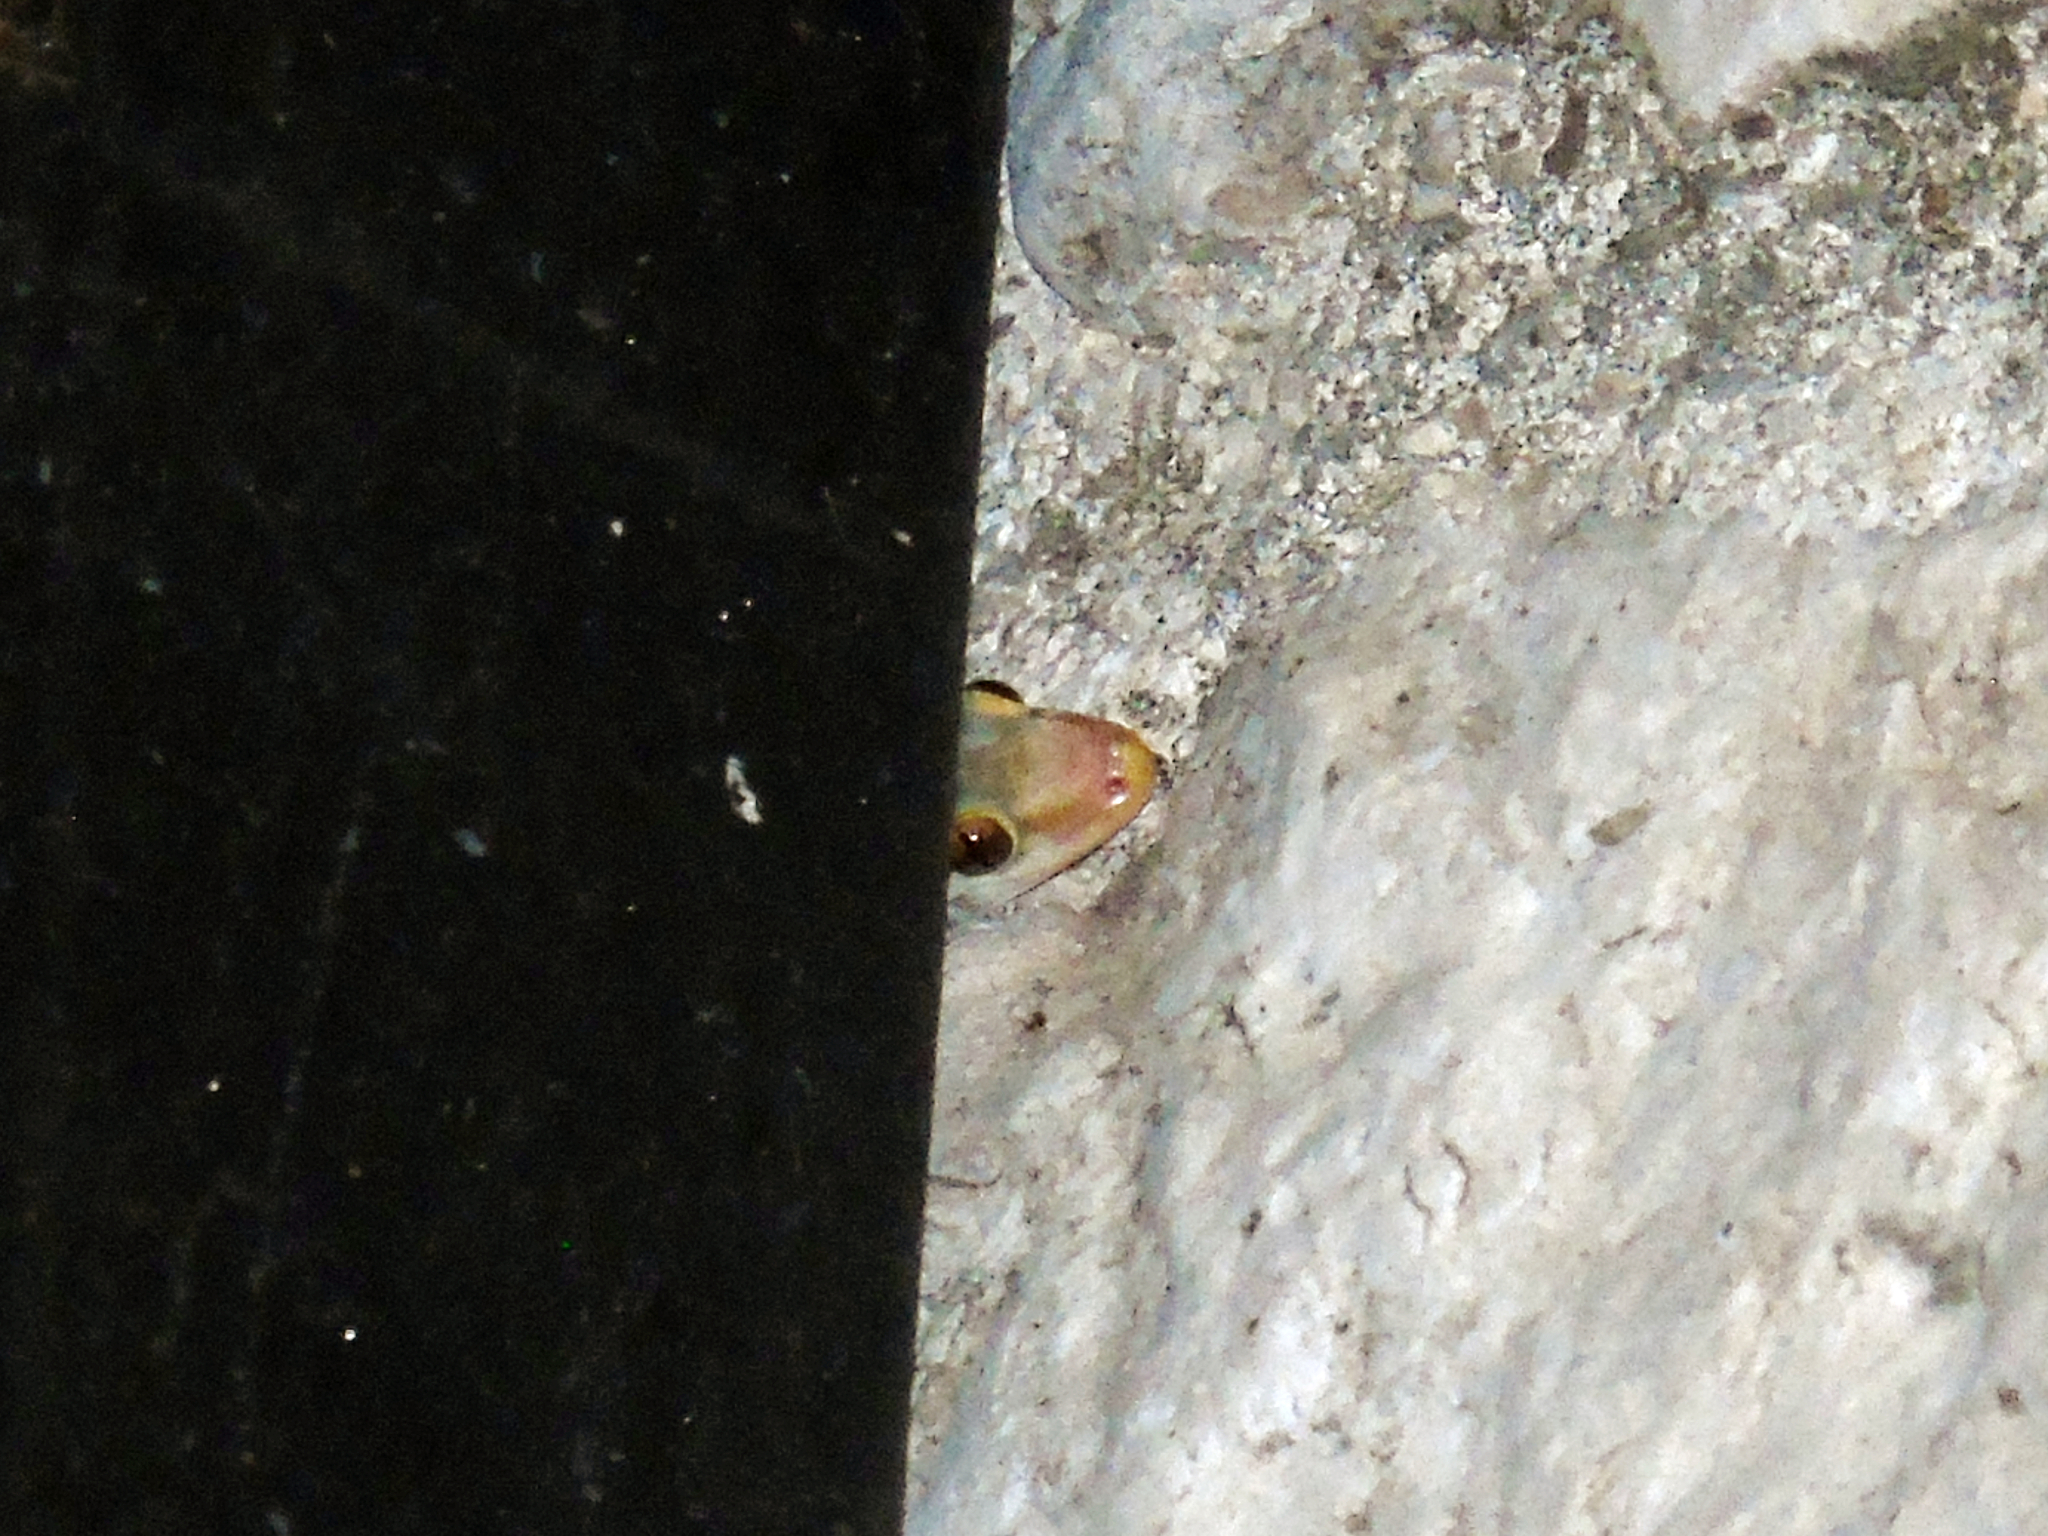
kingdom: Animalia
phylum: Chordata
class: Squamata
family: Gekkonidae
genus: Hemidactylus
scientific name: Hemidactylus turcicus
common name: Turkish gecko
